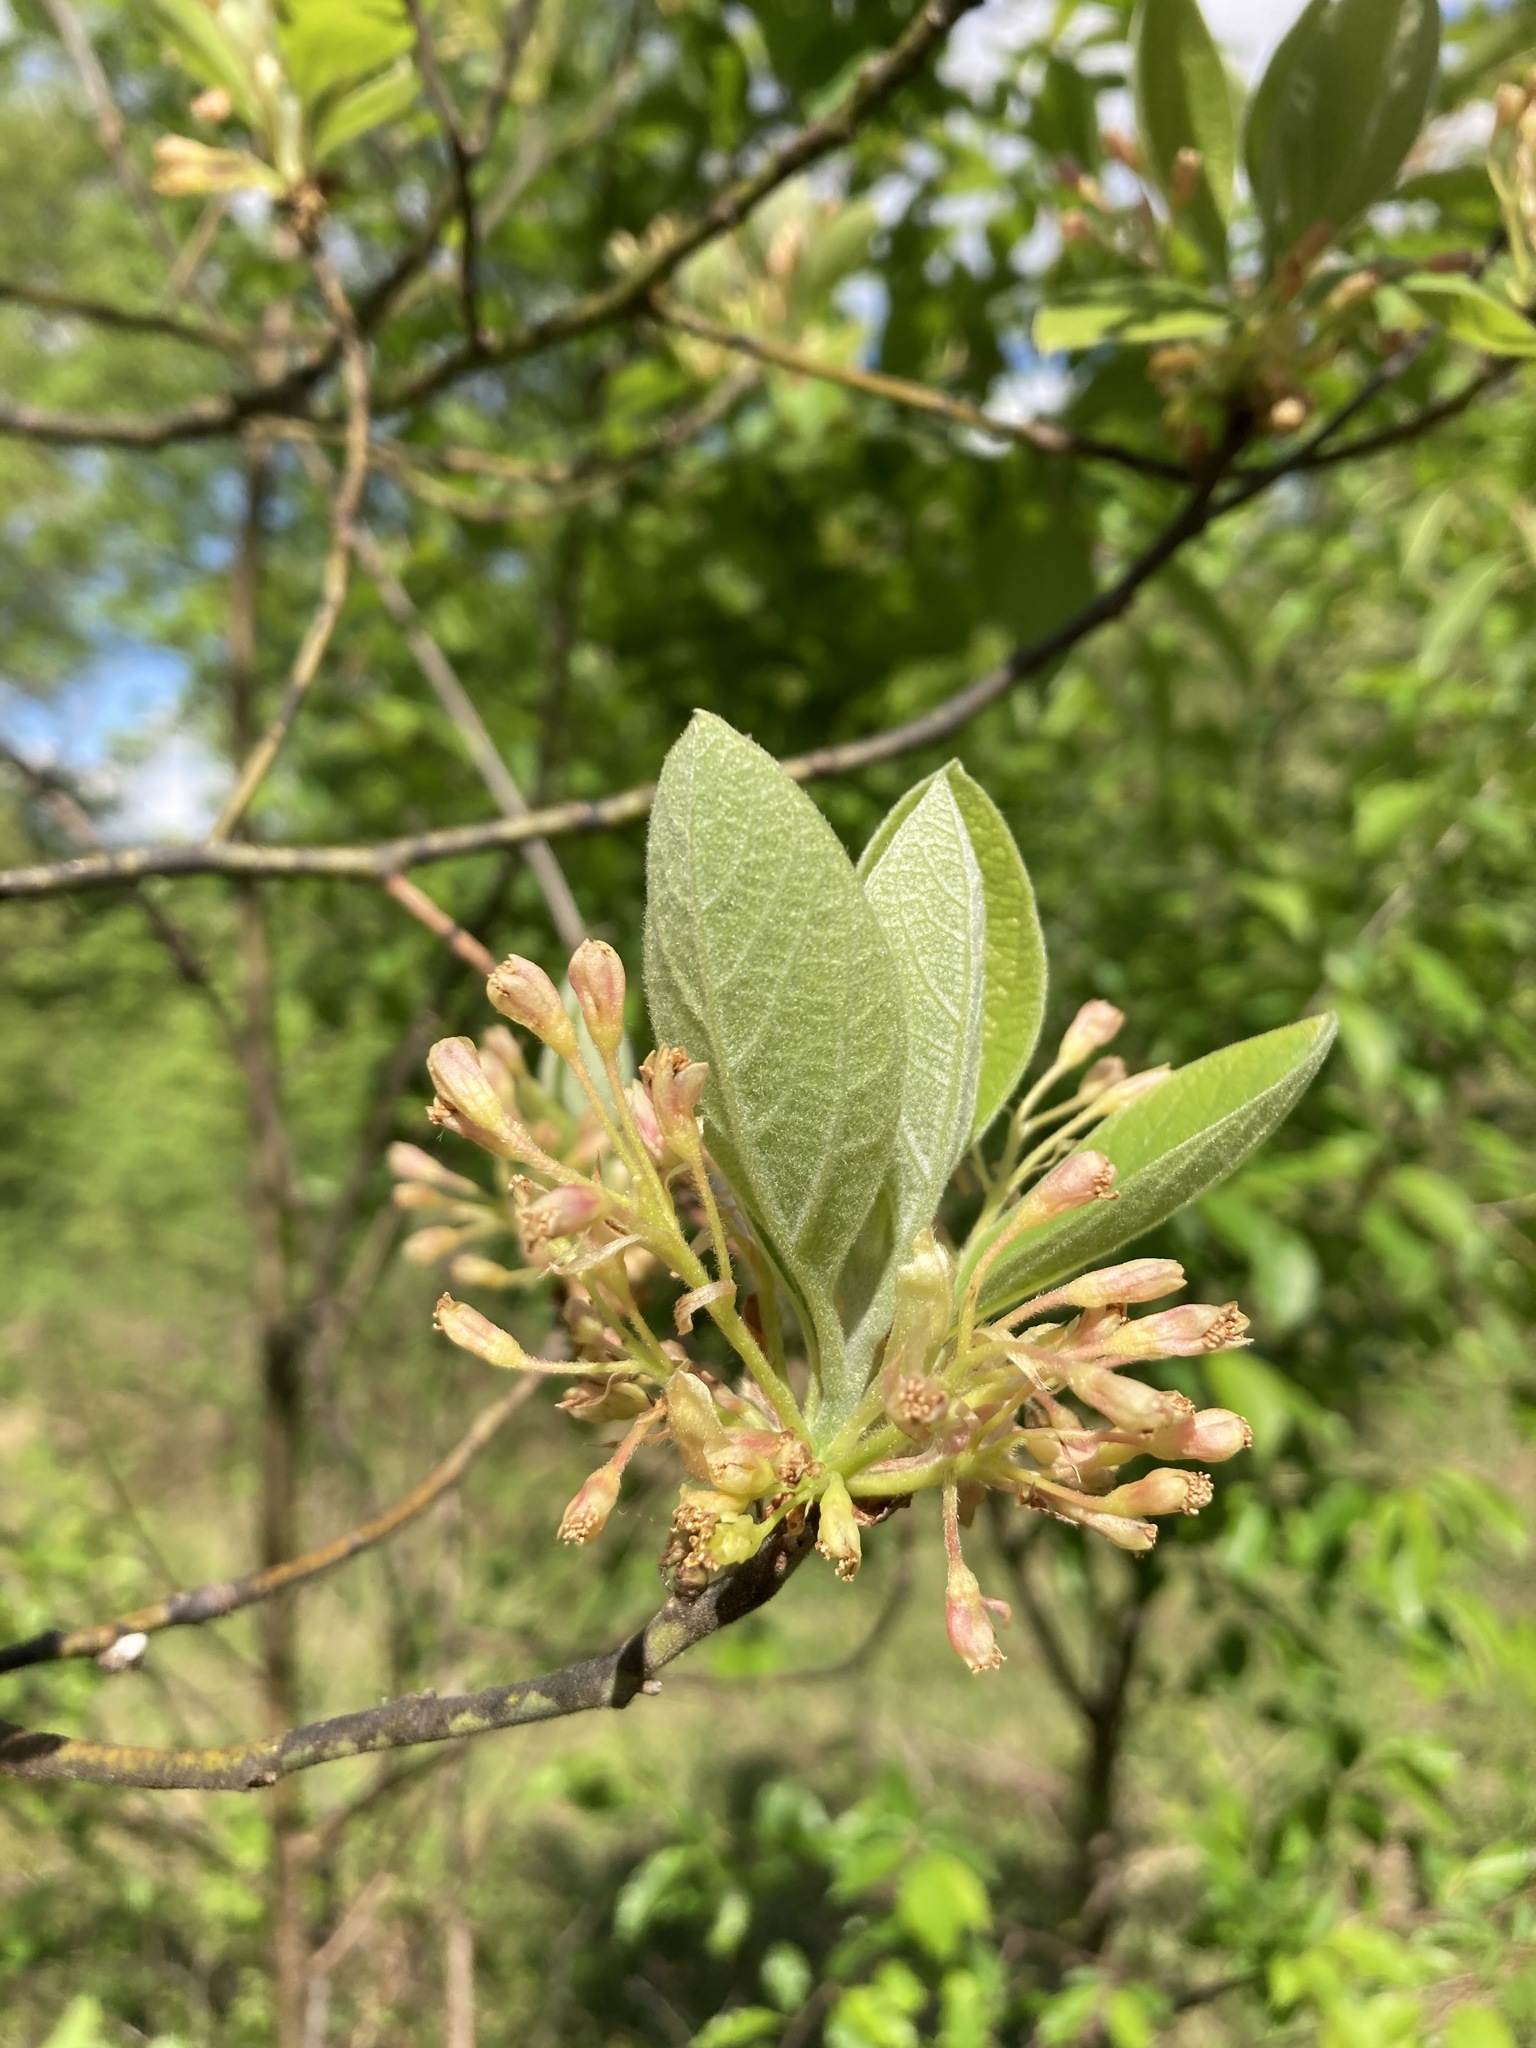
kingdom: Plantae
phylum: Tracheophyta
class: Magnoliopsida
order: Laurales
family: Lauraceae
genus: Sassafras
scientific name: Sassafras albidum
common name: Sassafras
